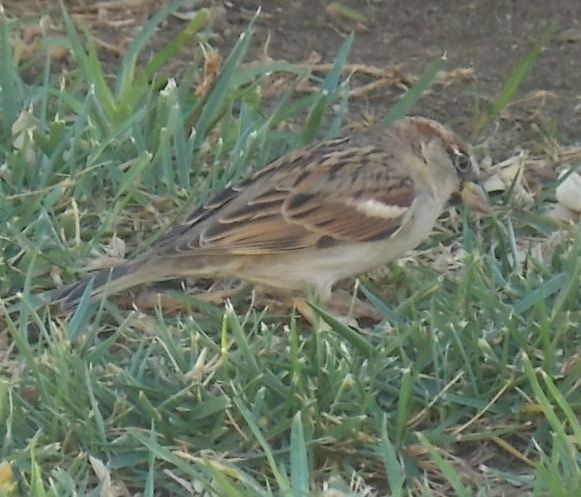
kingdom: Animalia
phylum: Chordata
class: Aves
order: Passeriformes
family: Passeridae
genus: Passer
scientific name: Passer domesticus
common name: House sparrow
